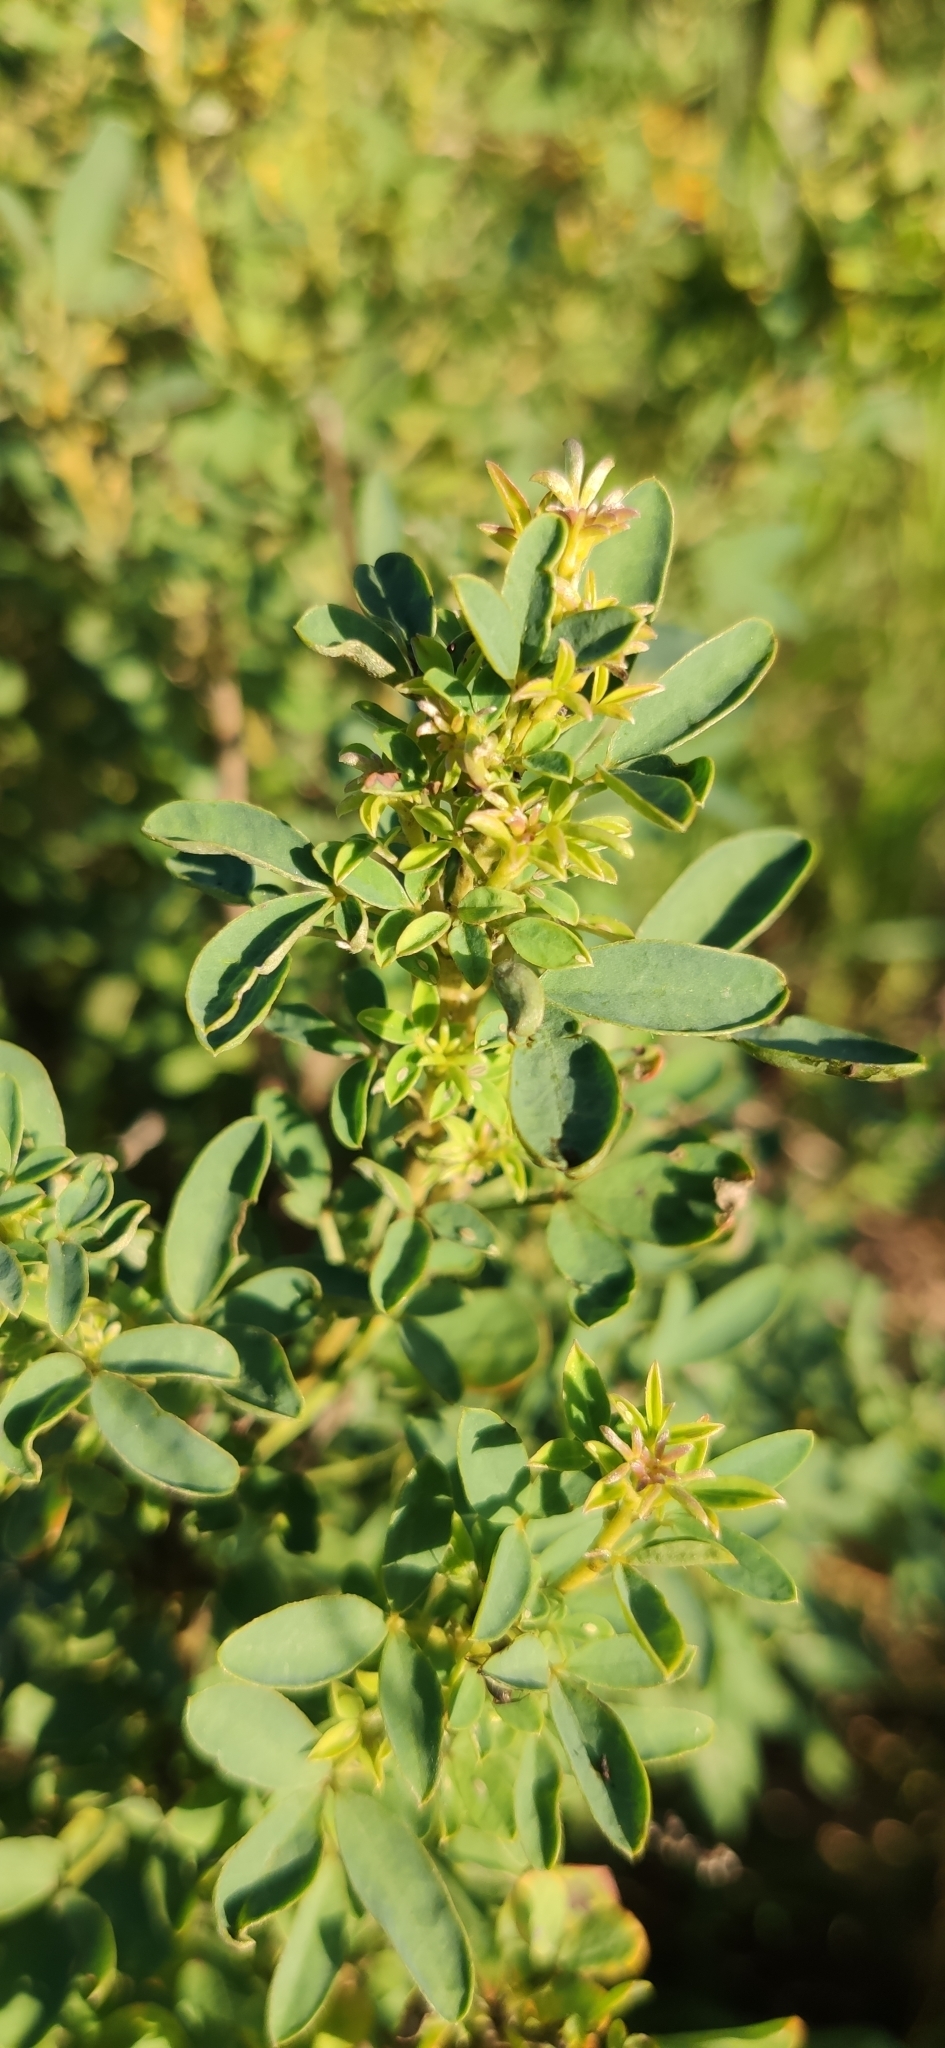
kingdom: Plantae
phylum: Tracheophyta
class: Magnoliopsida
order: Fabales
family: Fabaceae
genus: Chamaecytisus
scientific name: Chamaecytisus ruthenicus
